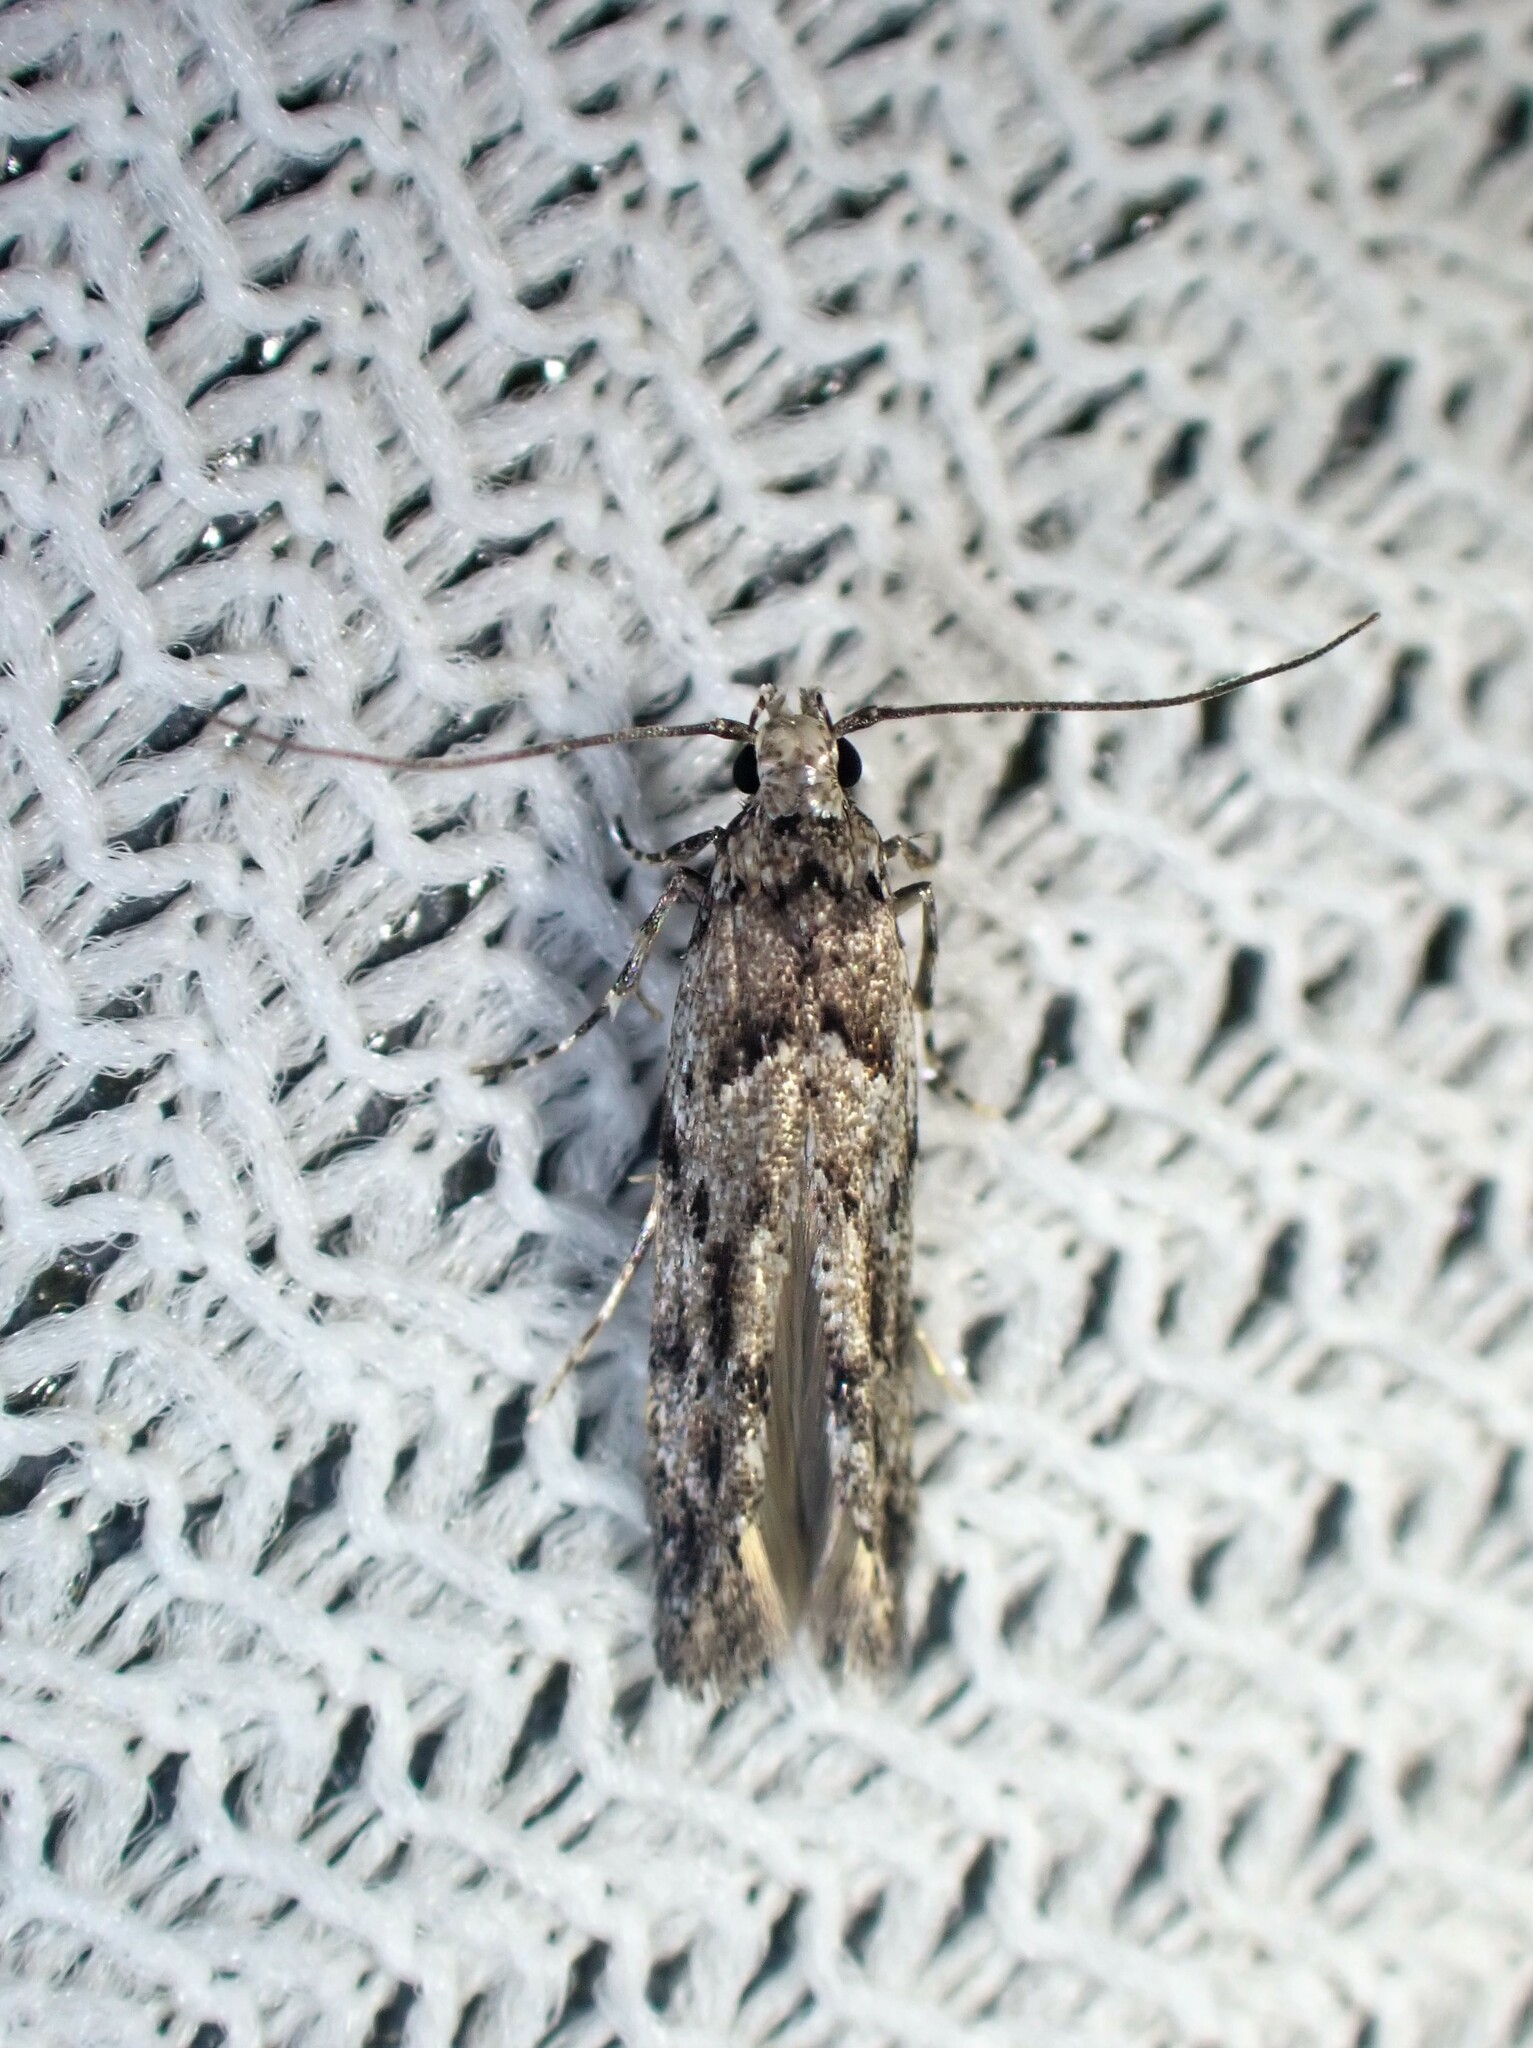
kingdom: Animalia
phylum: Arthropoda
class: Insecta
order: Lepidoptera
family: Gelechiidae
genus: Sinoe
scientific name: Sinoe chambersi
